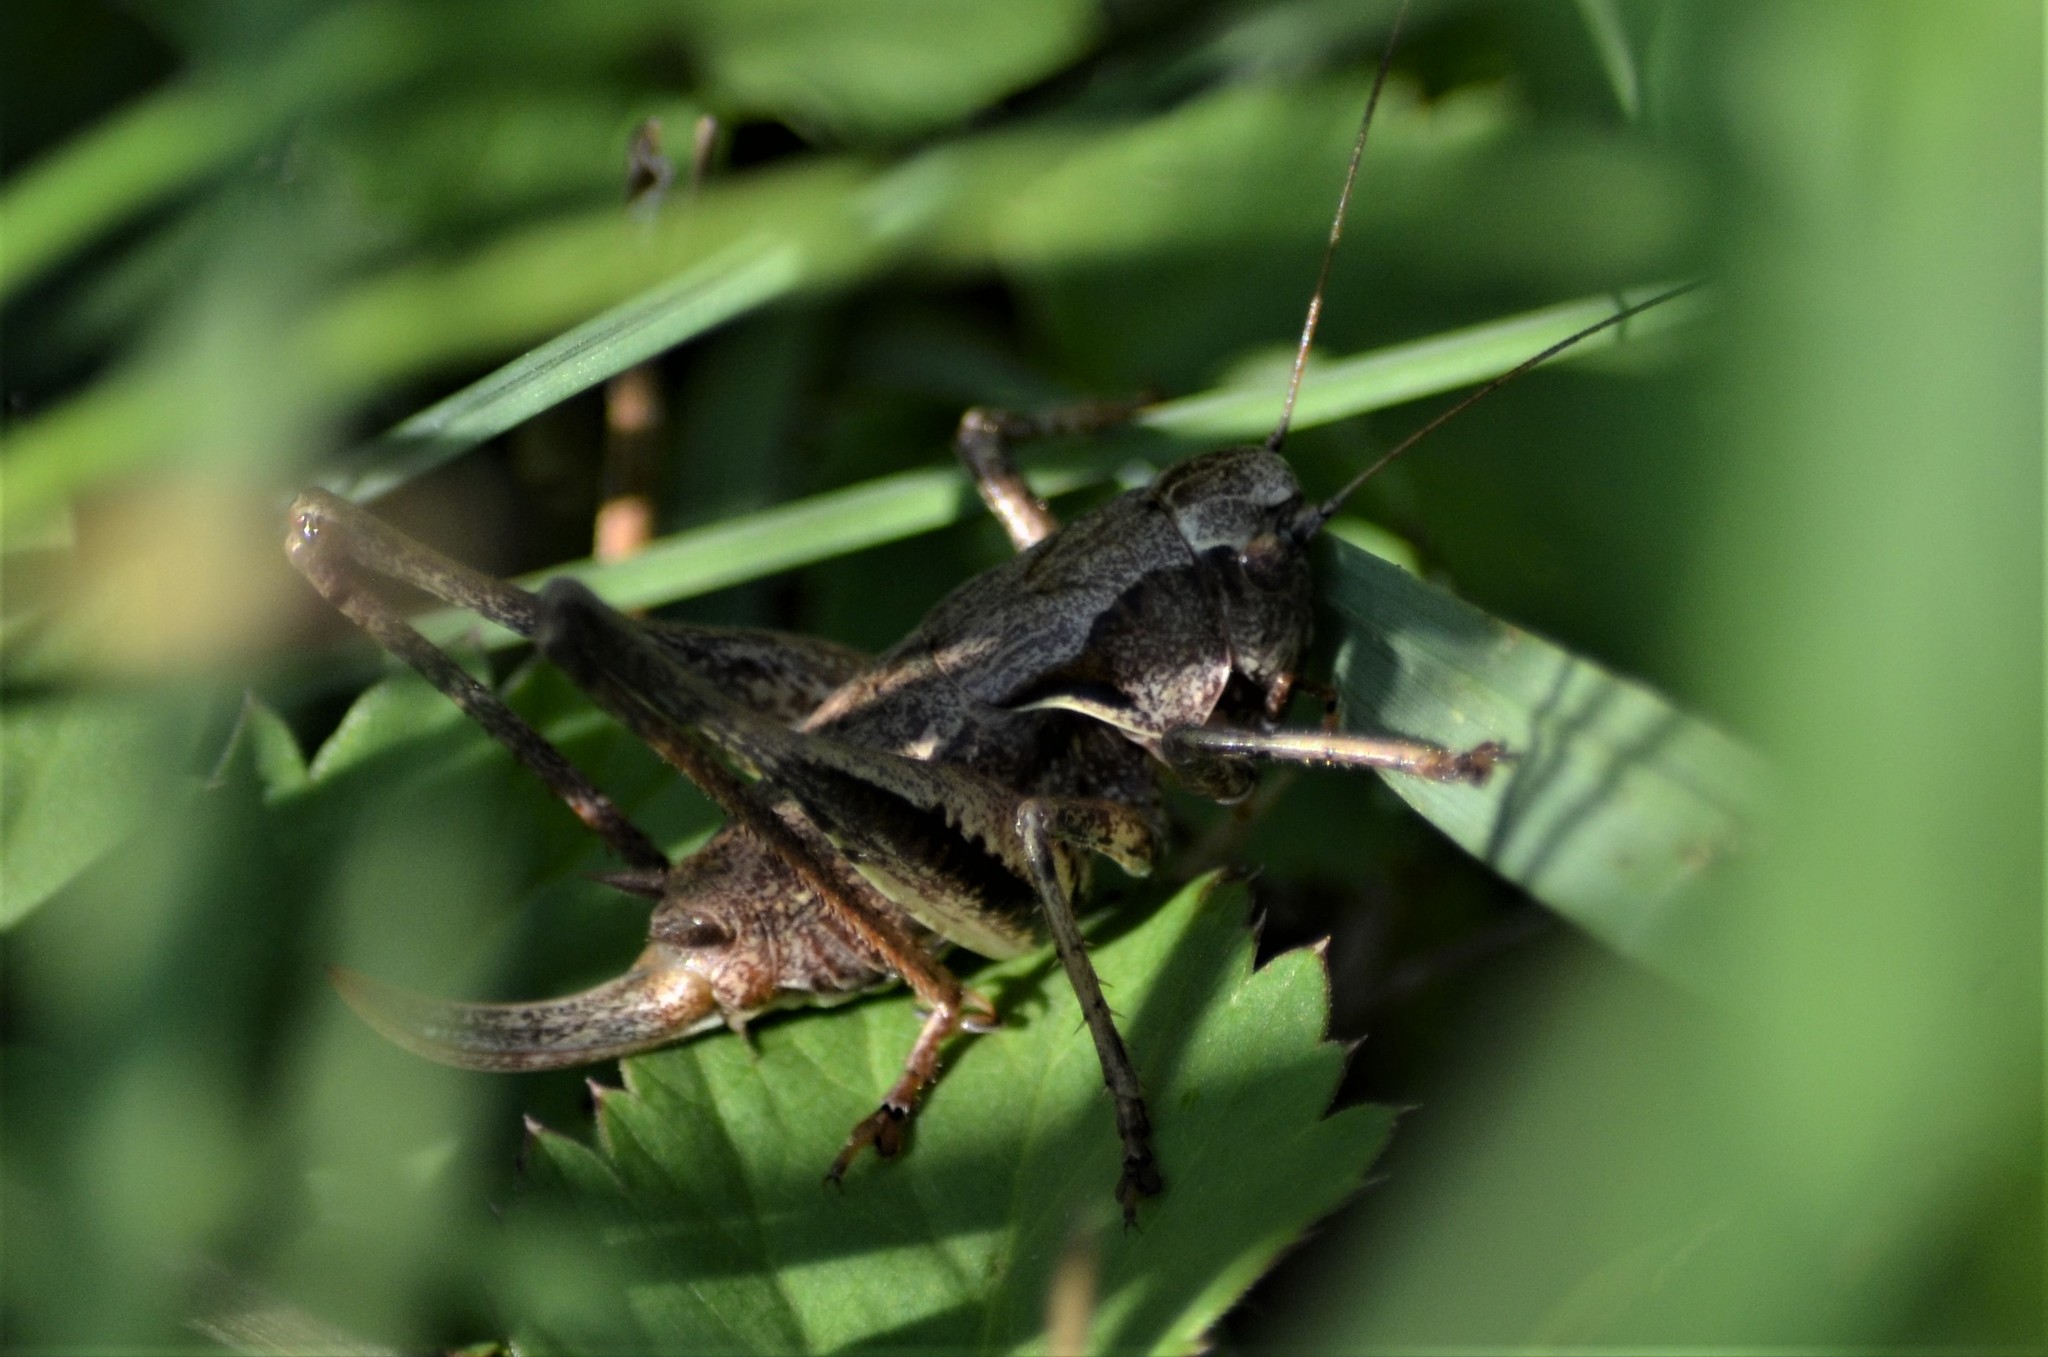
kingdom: Animalia
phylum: Arthropoda
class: Insecta
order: Orthoptera
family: Tettigoniidae
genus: Pholidoptera
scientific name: Pholidoptera griseoaptera
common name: Dark bush-cricket
